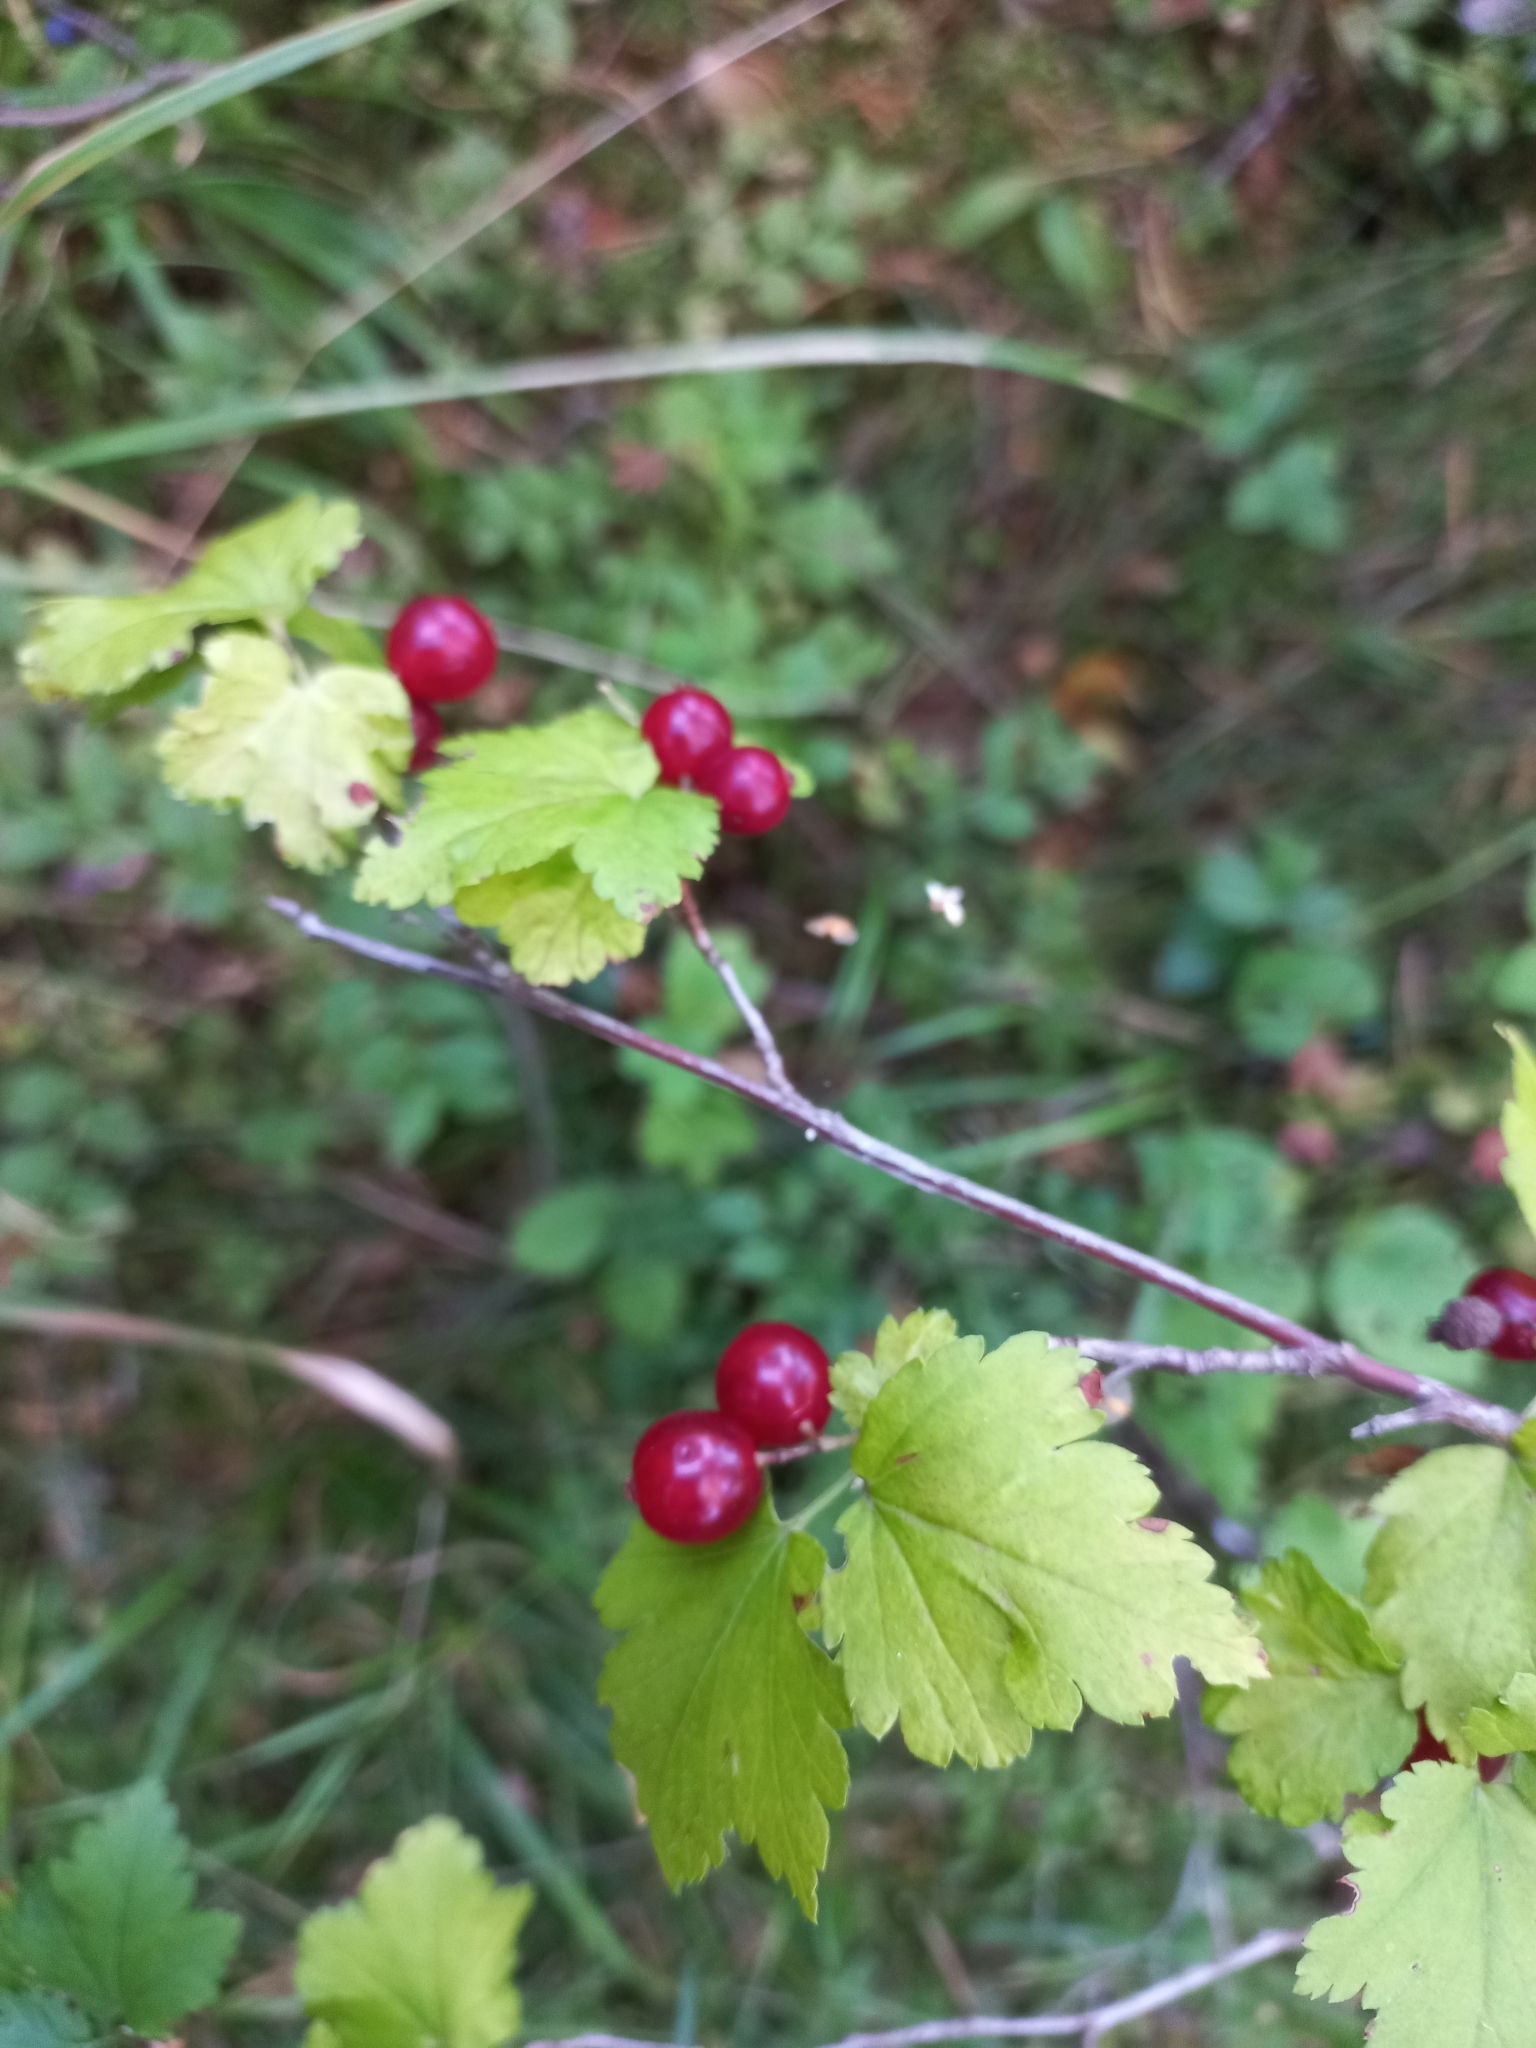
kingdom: Plantae
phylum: Tracheophyta
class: Magnoliopsida
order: Saxifragales
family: Grossulariaceae
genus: Ribes
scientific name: Ribes alpinum
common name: Alpine currant
